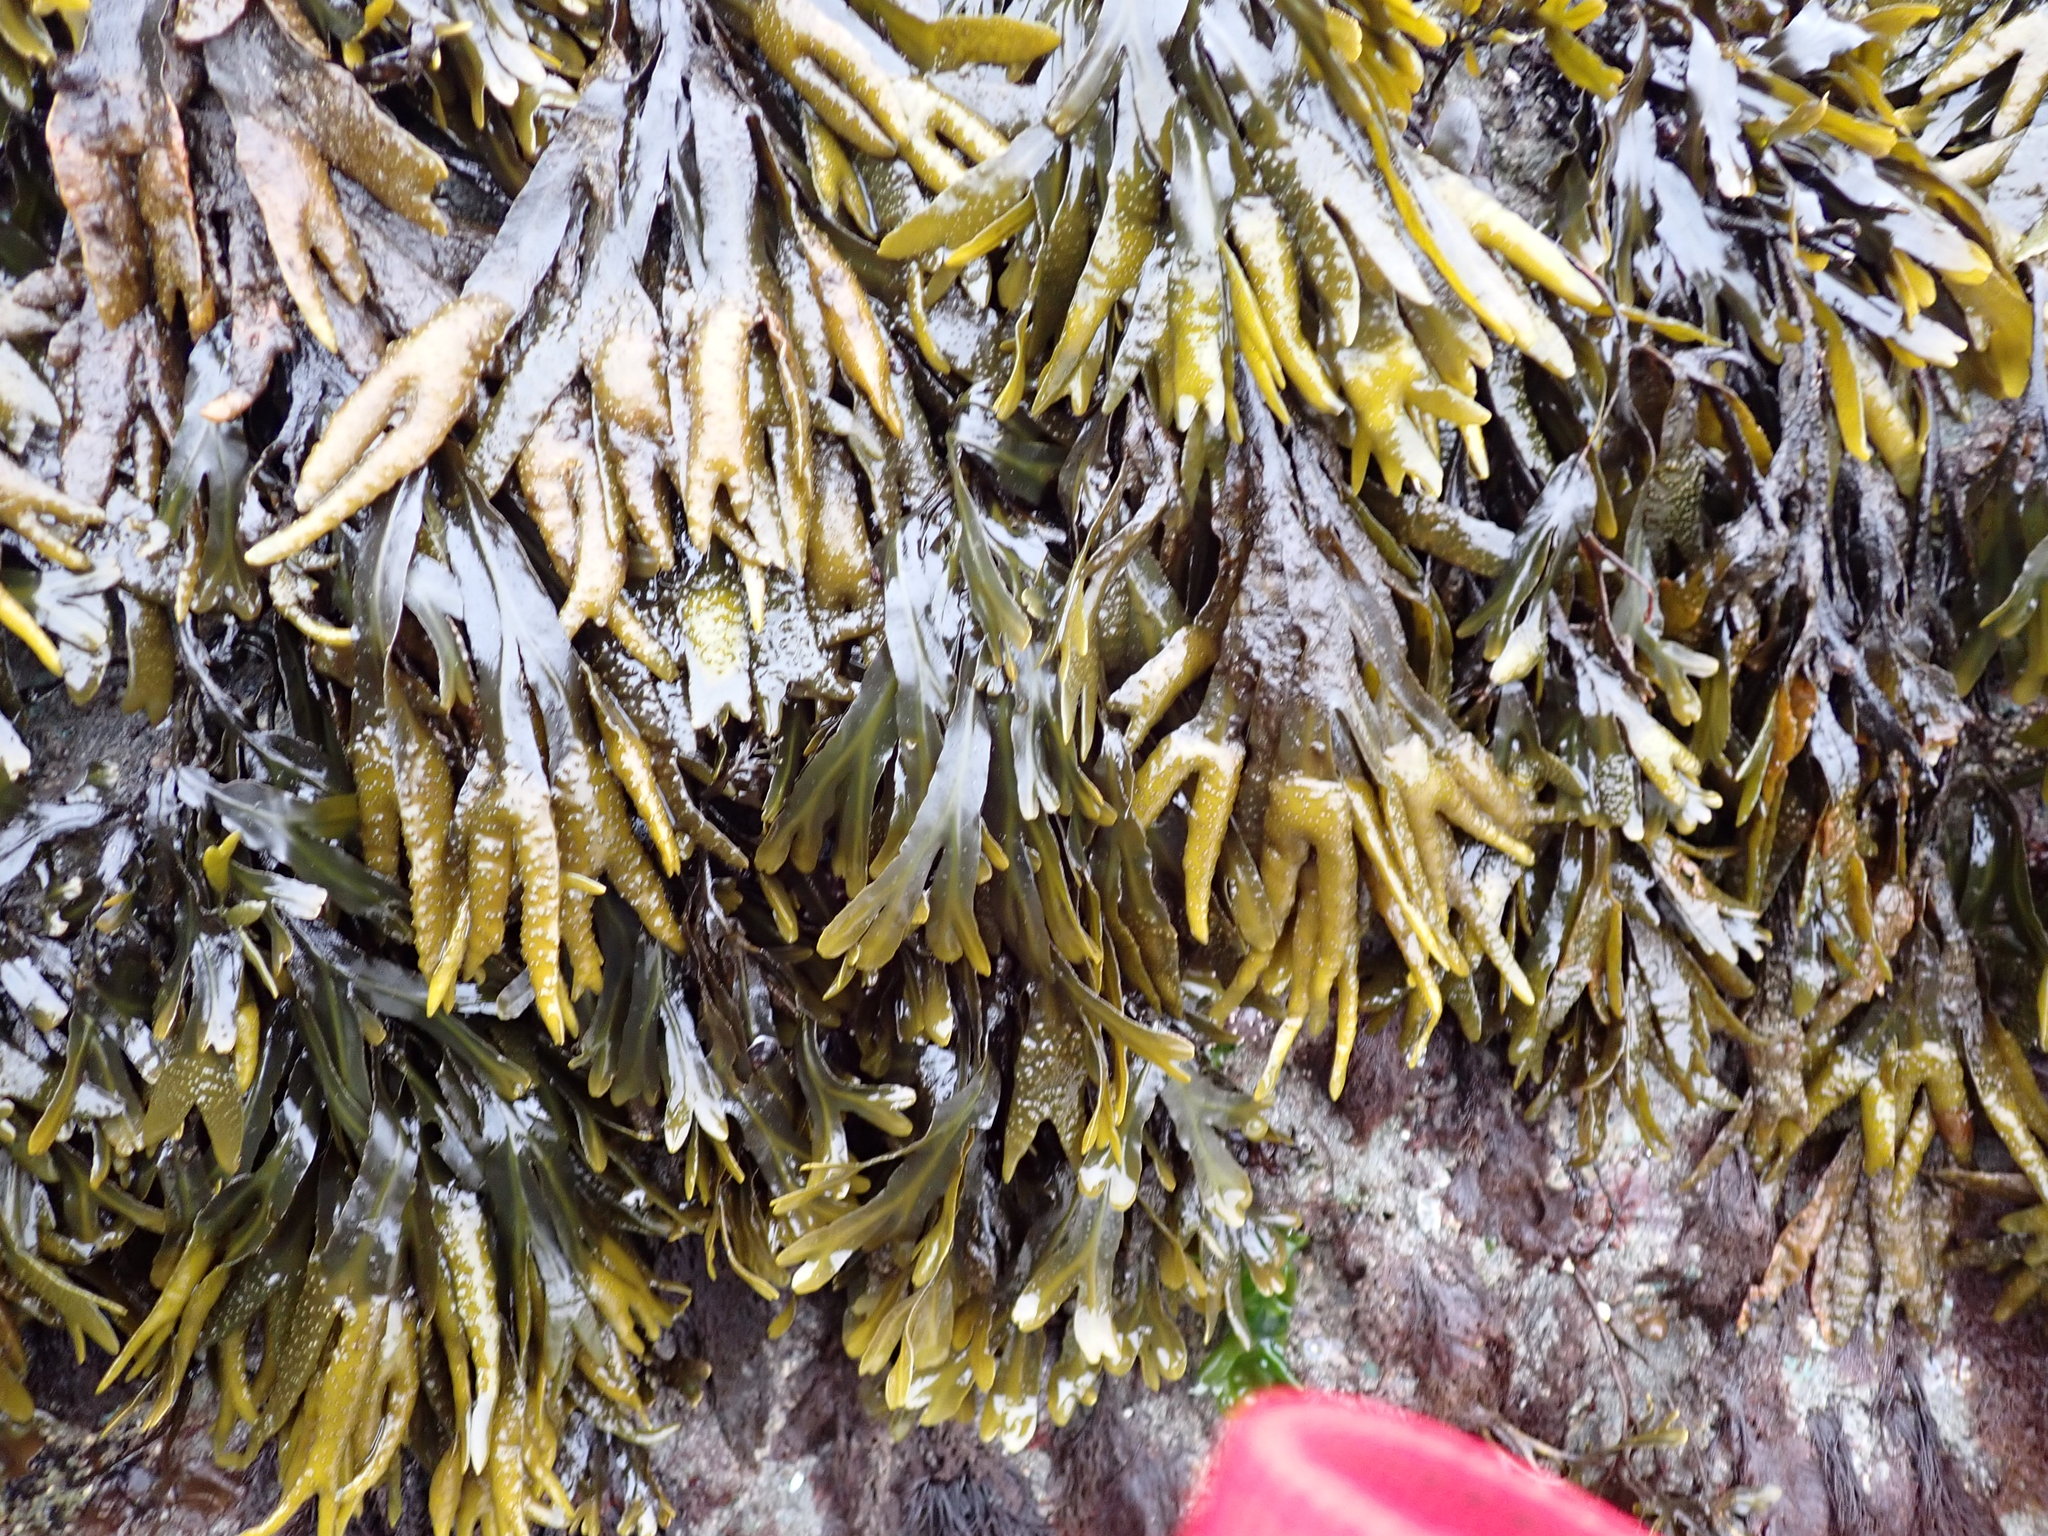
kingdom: Chromista
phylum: Ochrophyta
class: Phaeophyceae
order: Fucales
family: Fucaceae
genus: Fucus
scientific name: Fucus distichus
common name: Rockweed
